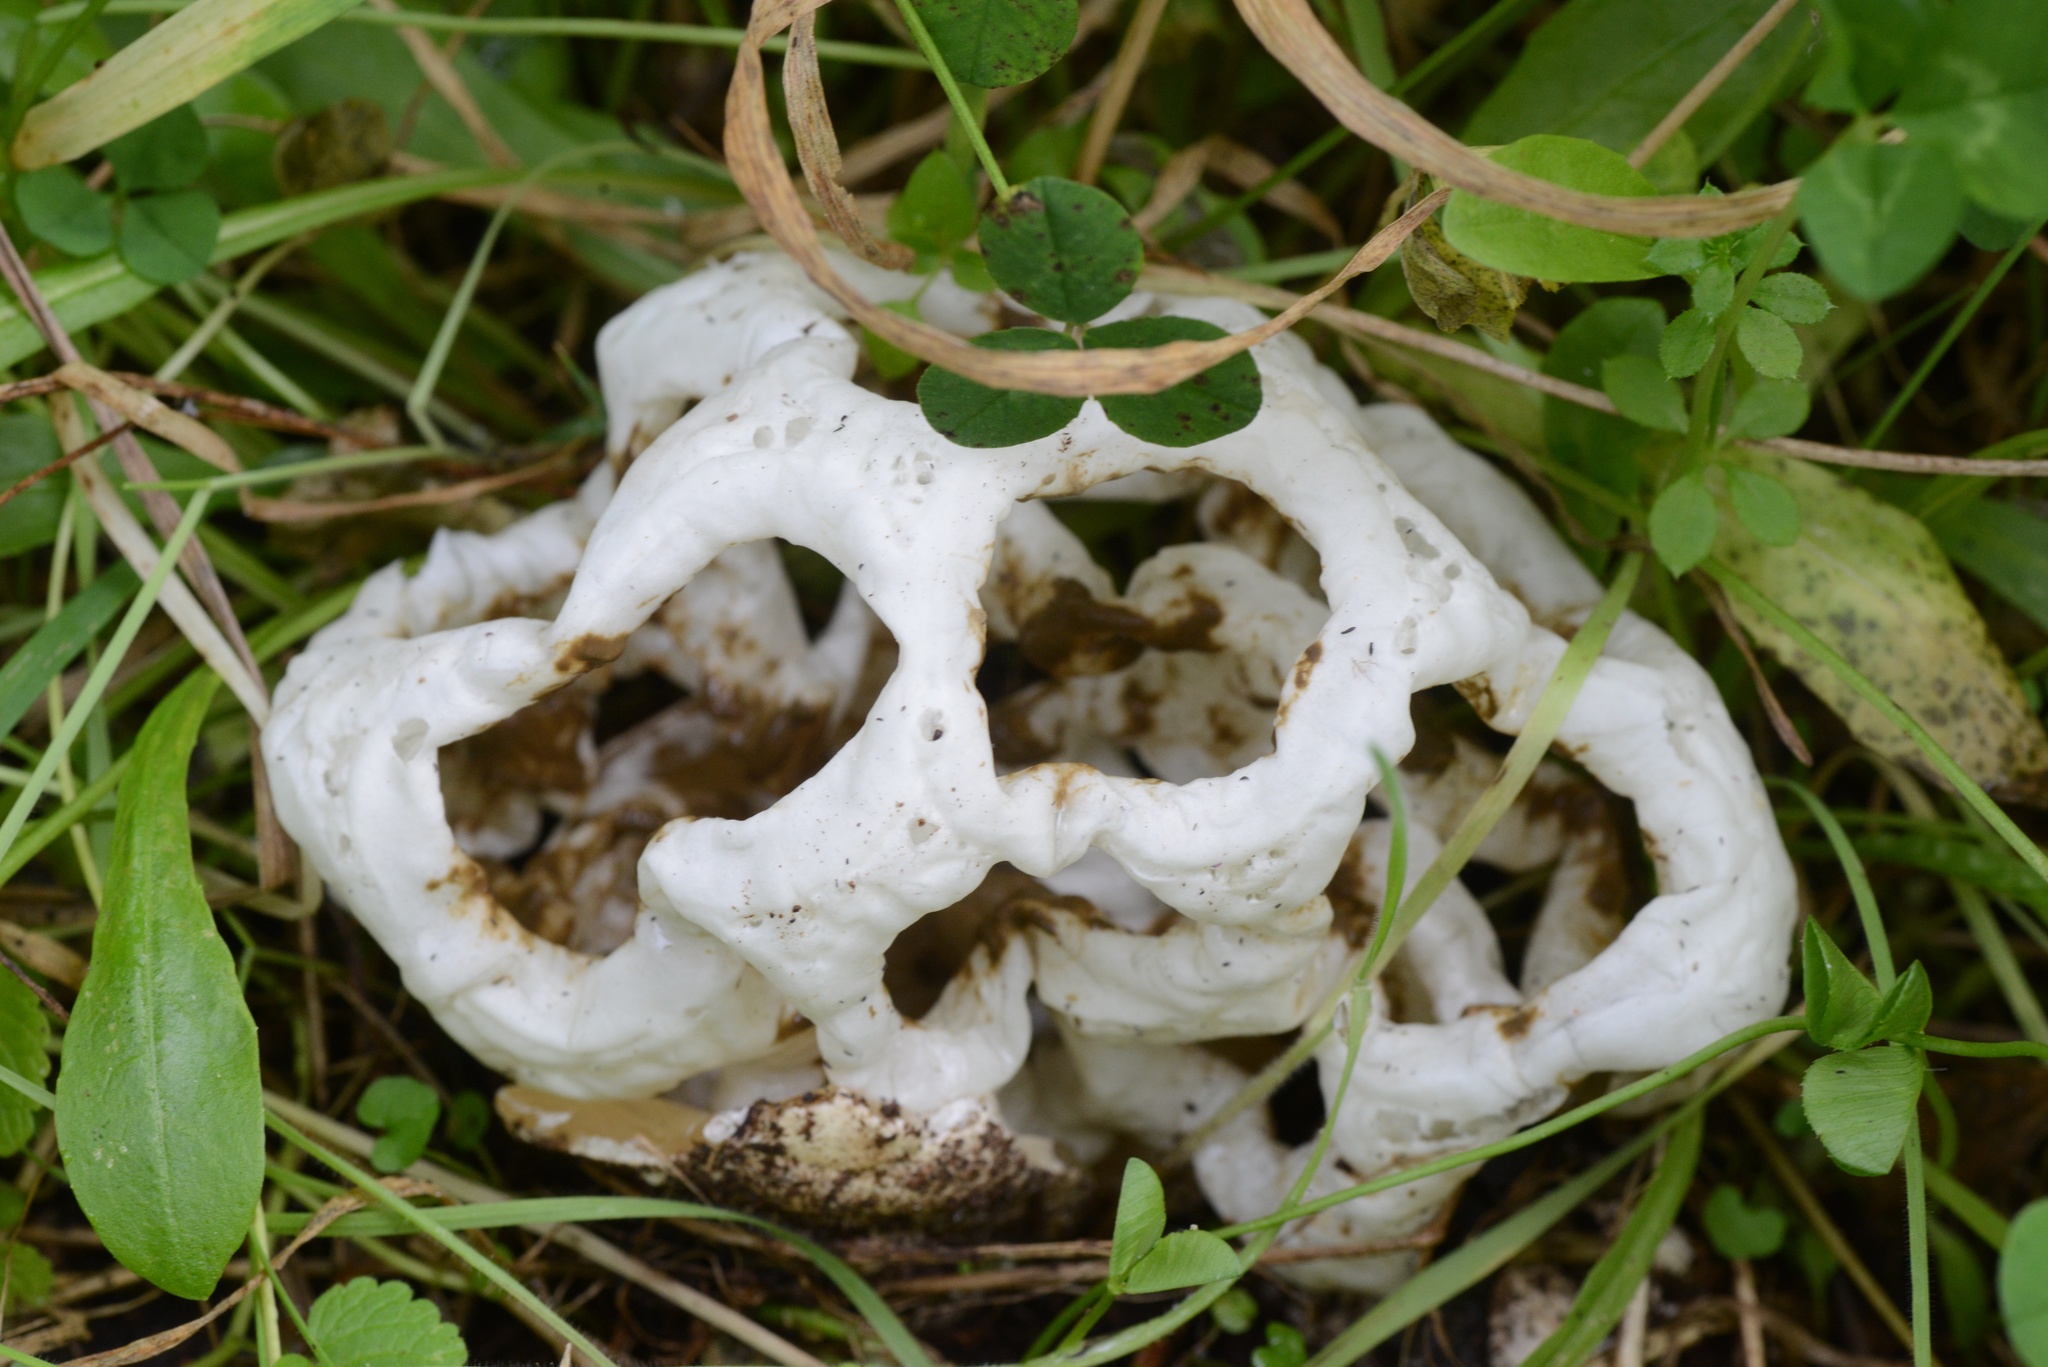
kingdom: Fungi
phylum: Basidiomycota
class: Agaricomycetes
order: Phallales
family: Phallaceae
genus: Ileodictyon
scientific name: Ileodictyon cibarium
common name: Basket fungus
